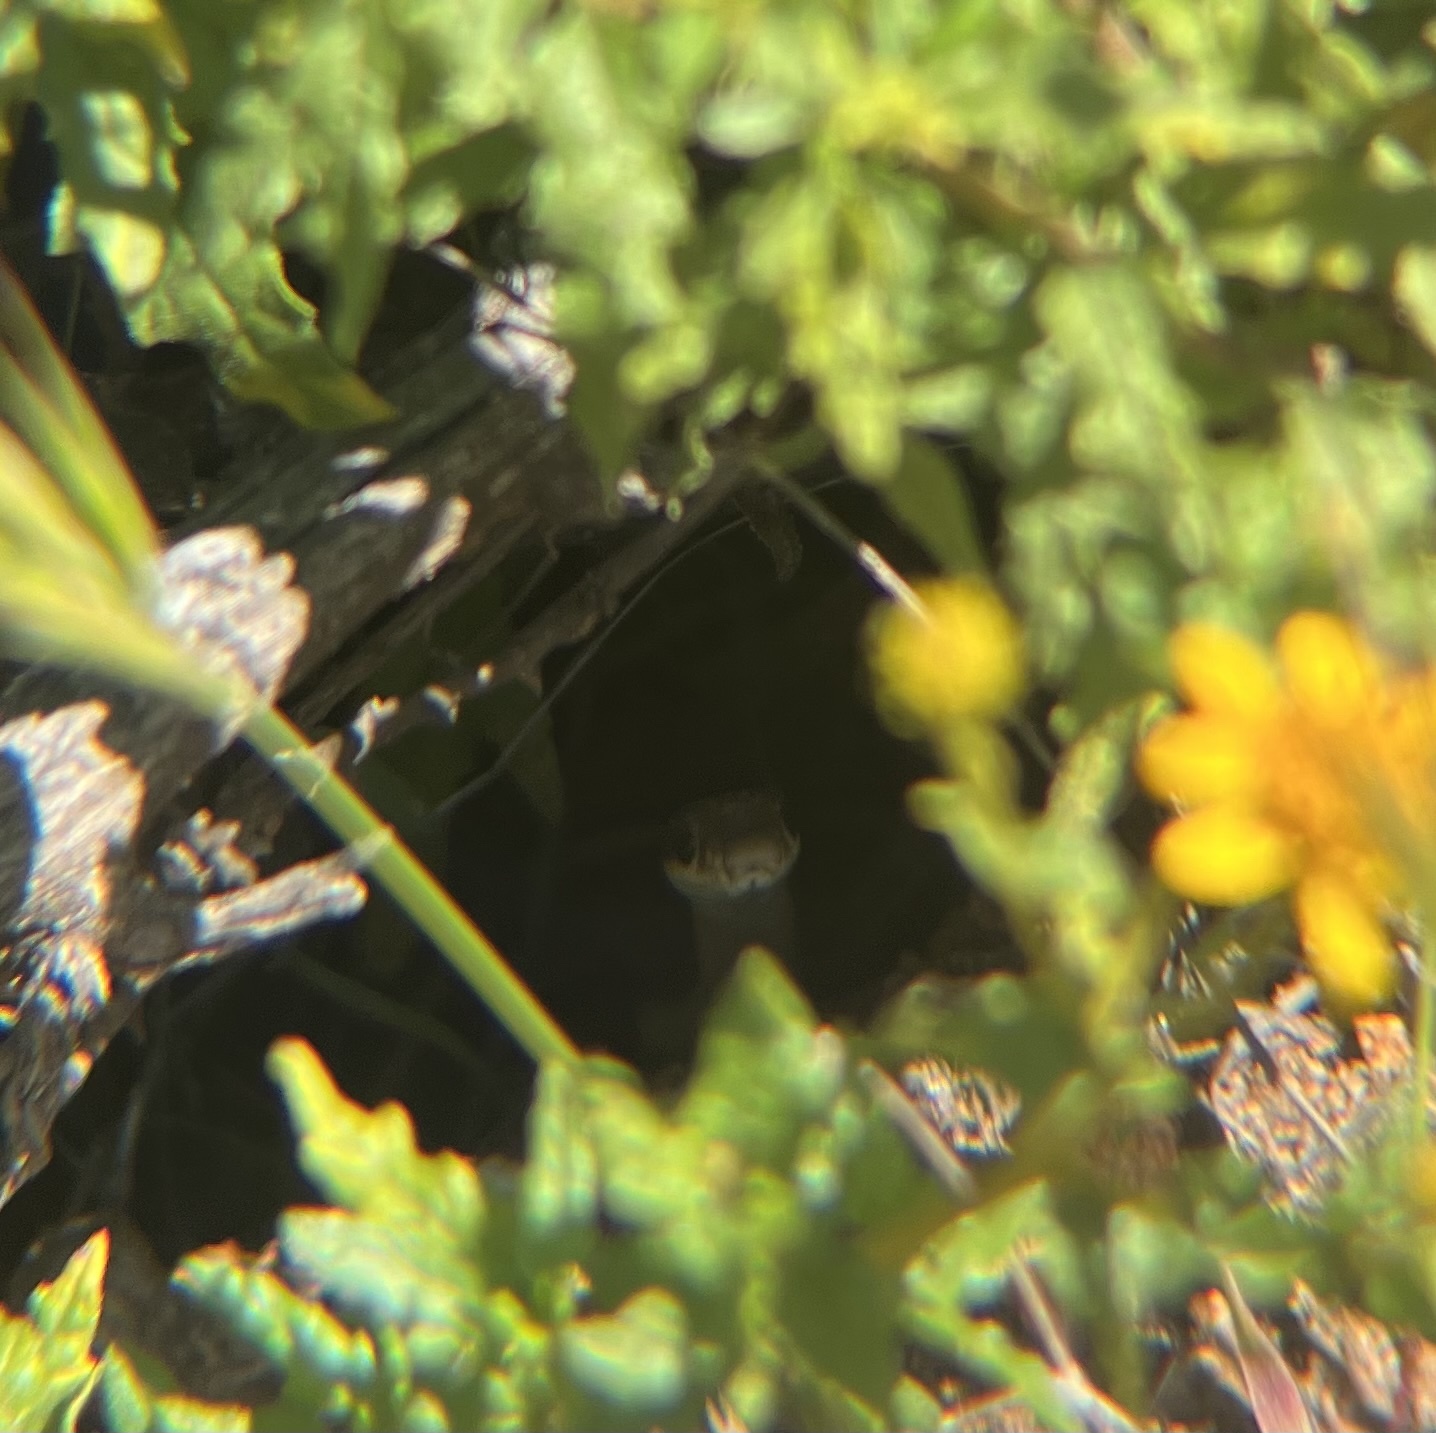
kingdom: Animalia
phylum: Chordata
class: Squamata
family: Colubridae
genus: Salvadora
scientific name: Salvadora hexalepis
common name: Western patchnose snake
